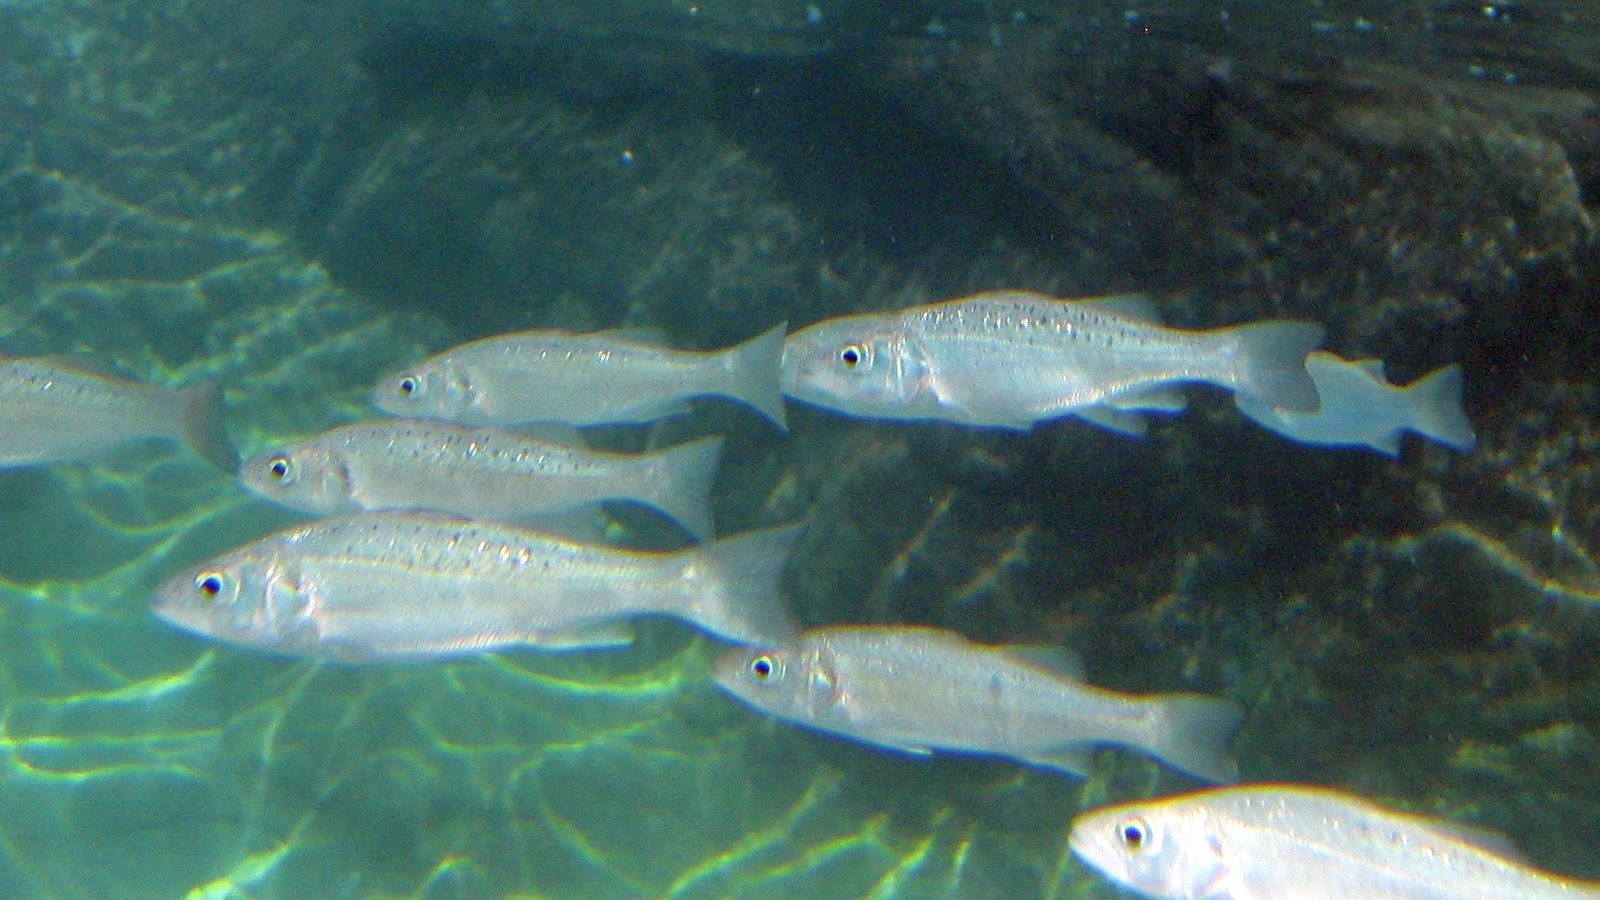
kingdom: Animalia
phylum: Chordata
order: Perciformes
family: Moronidae
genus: Dicentrarchus
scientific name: Dicentrarchus labrax
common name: European seabass
